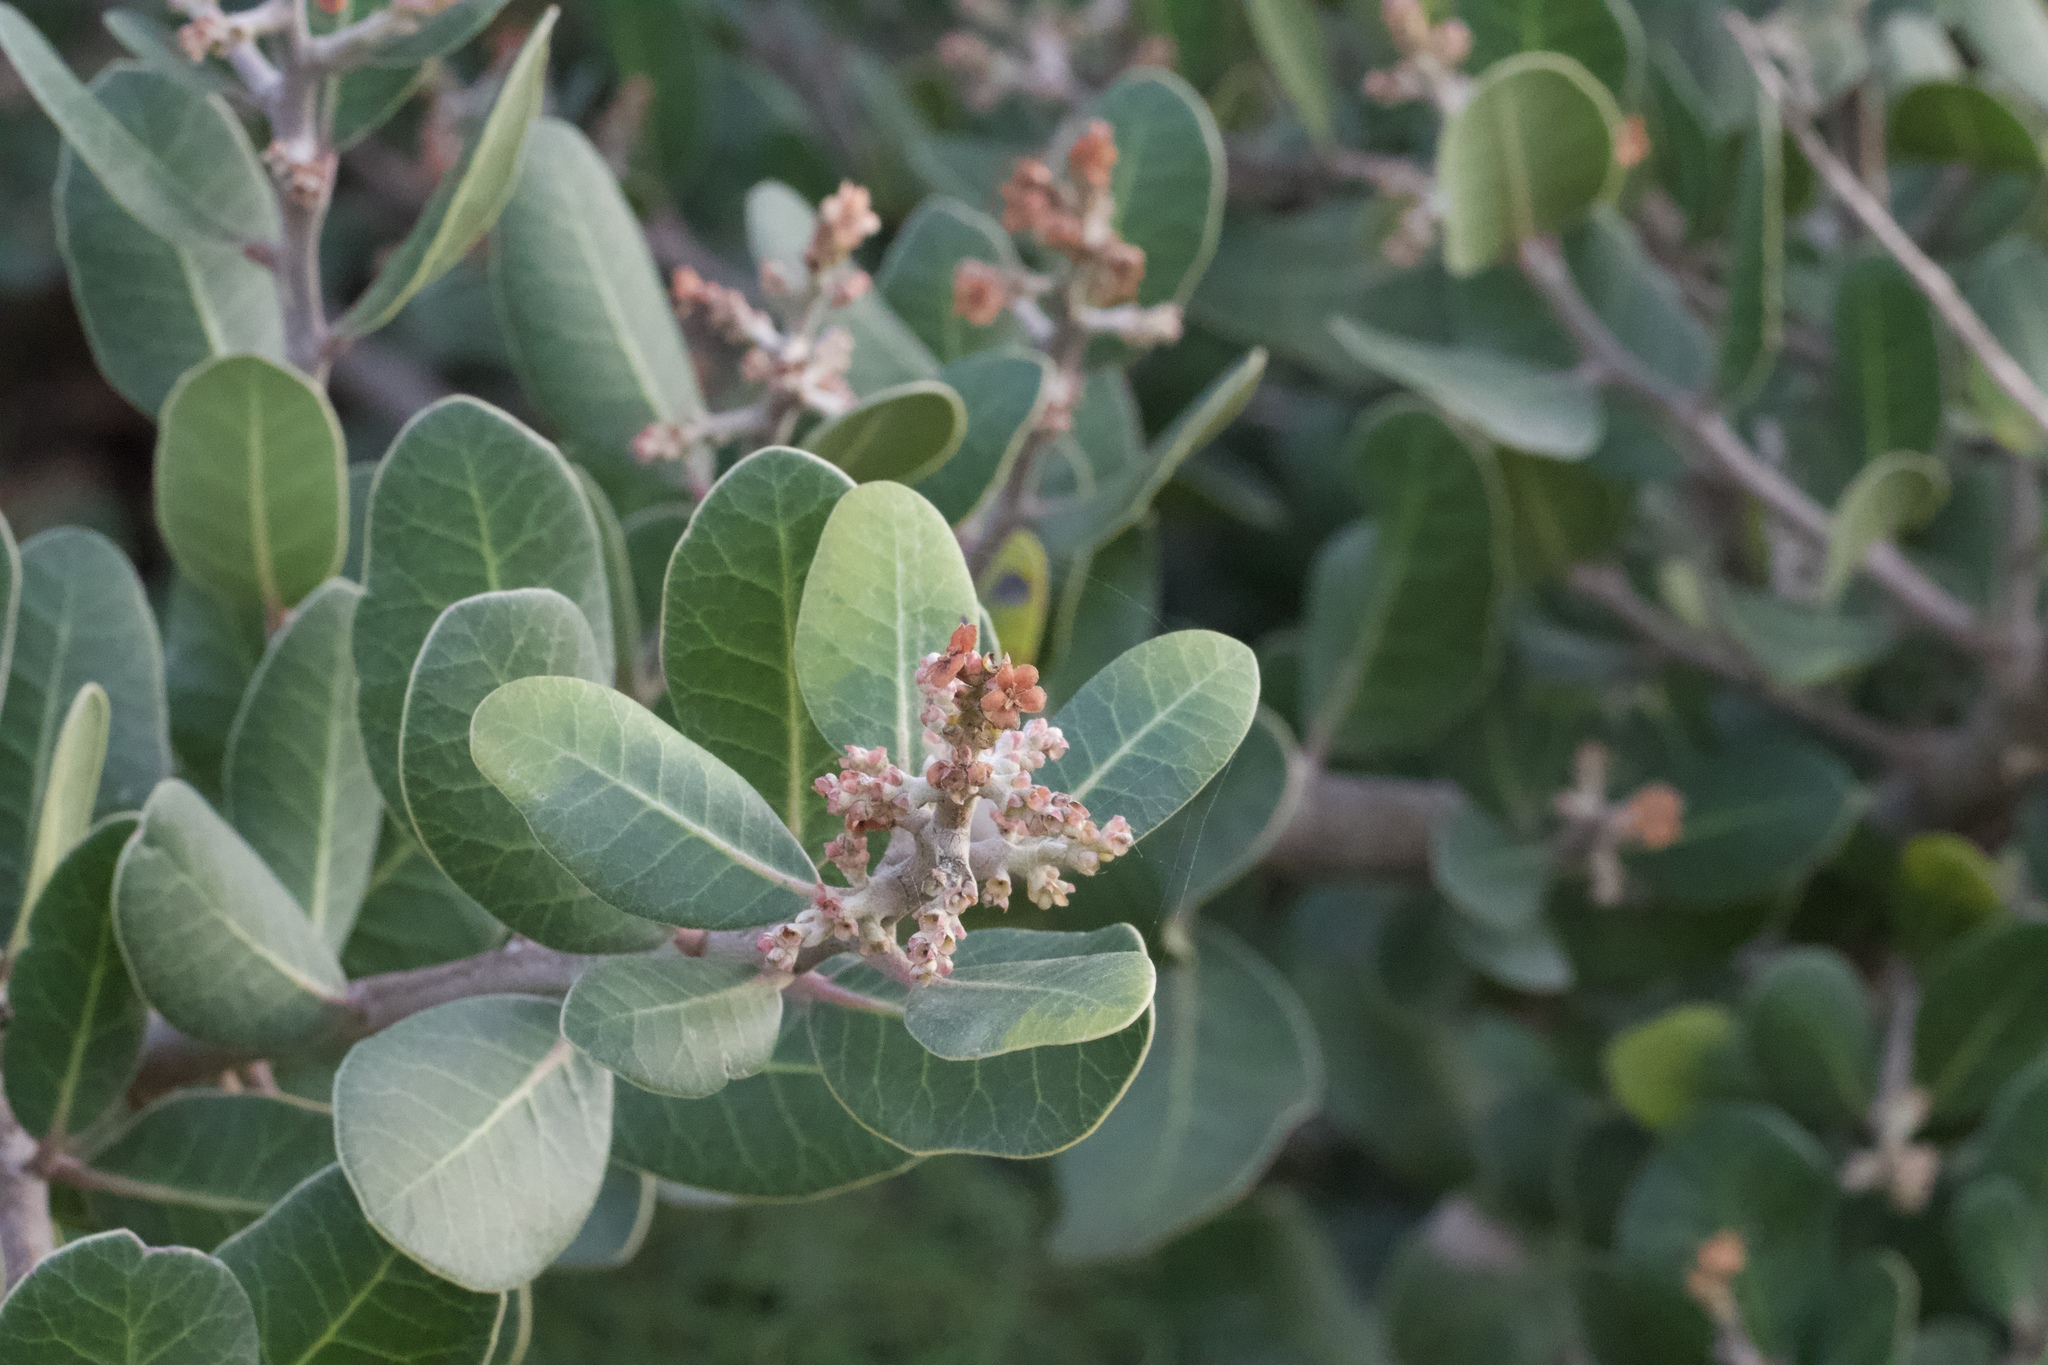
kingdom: Plantae
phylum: Tracheophyta
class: Magnoliopsida
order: Sapindales
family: Anacardiaceae
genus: Rhus
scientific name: Rhus integrifolia
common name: Lemonade sumac
